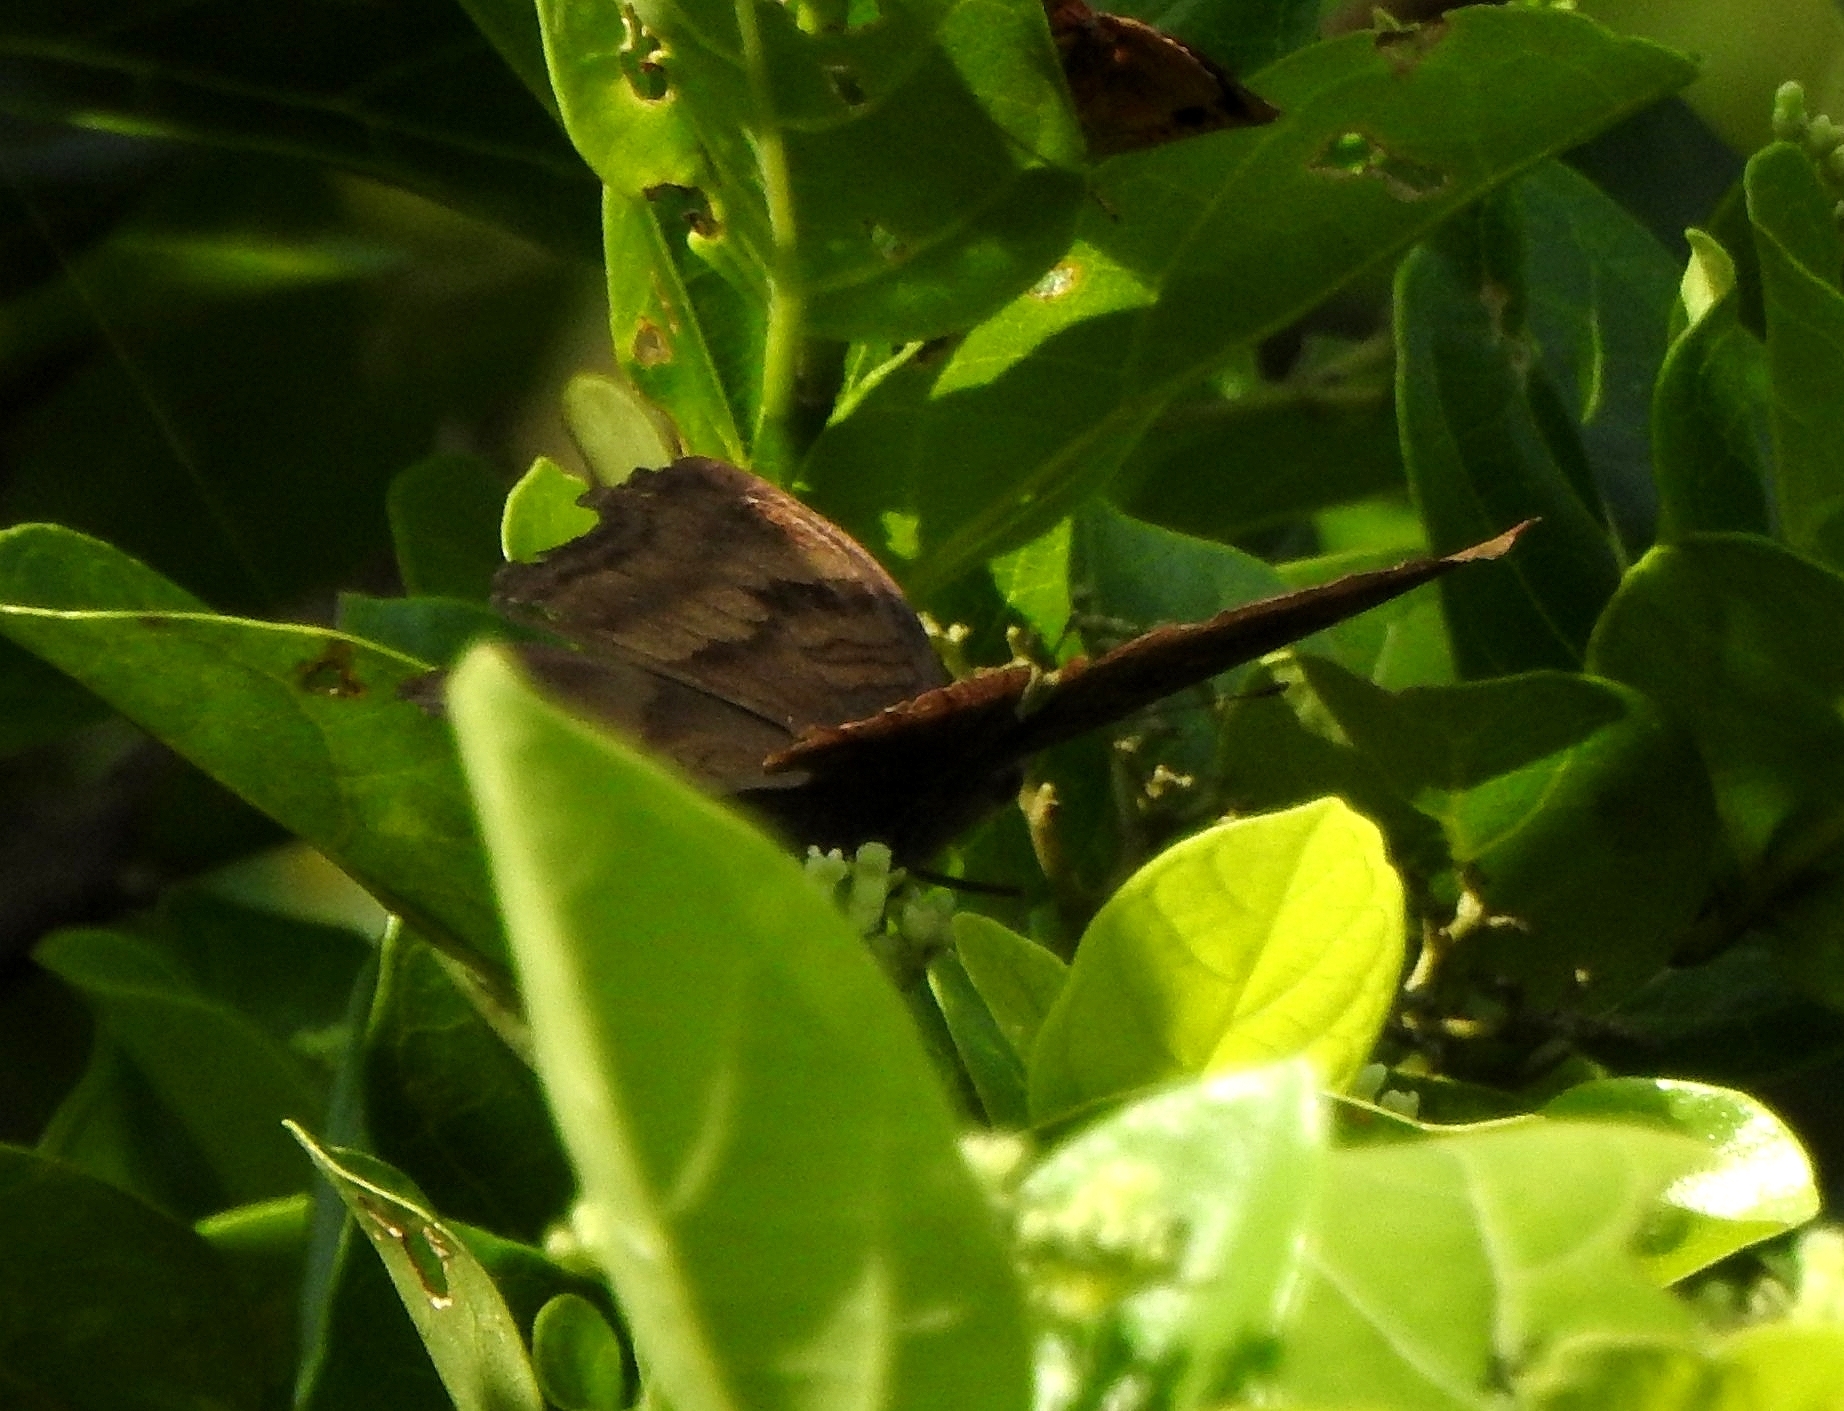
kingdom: Animalia
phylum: Arthropoda
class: Insecta
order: Lepidoptera
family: Nymphalidae
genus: Junonia
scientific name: Junonia iphita
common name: Chocolate pansy
